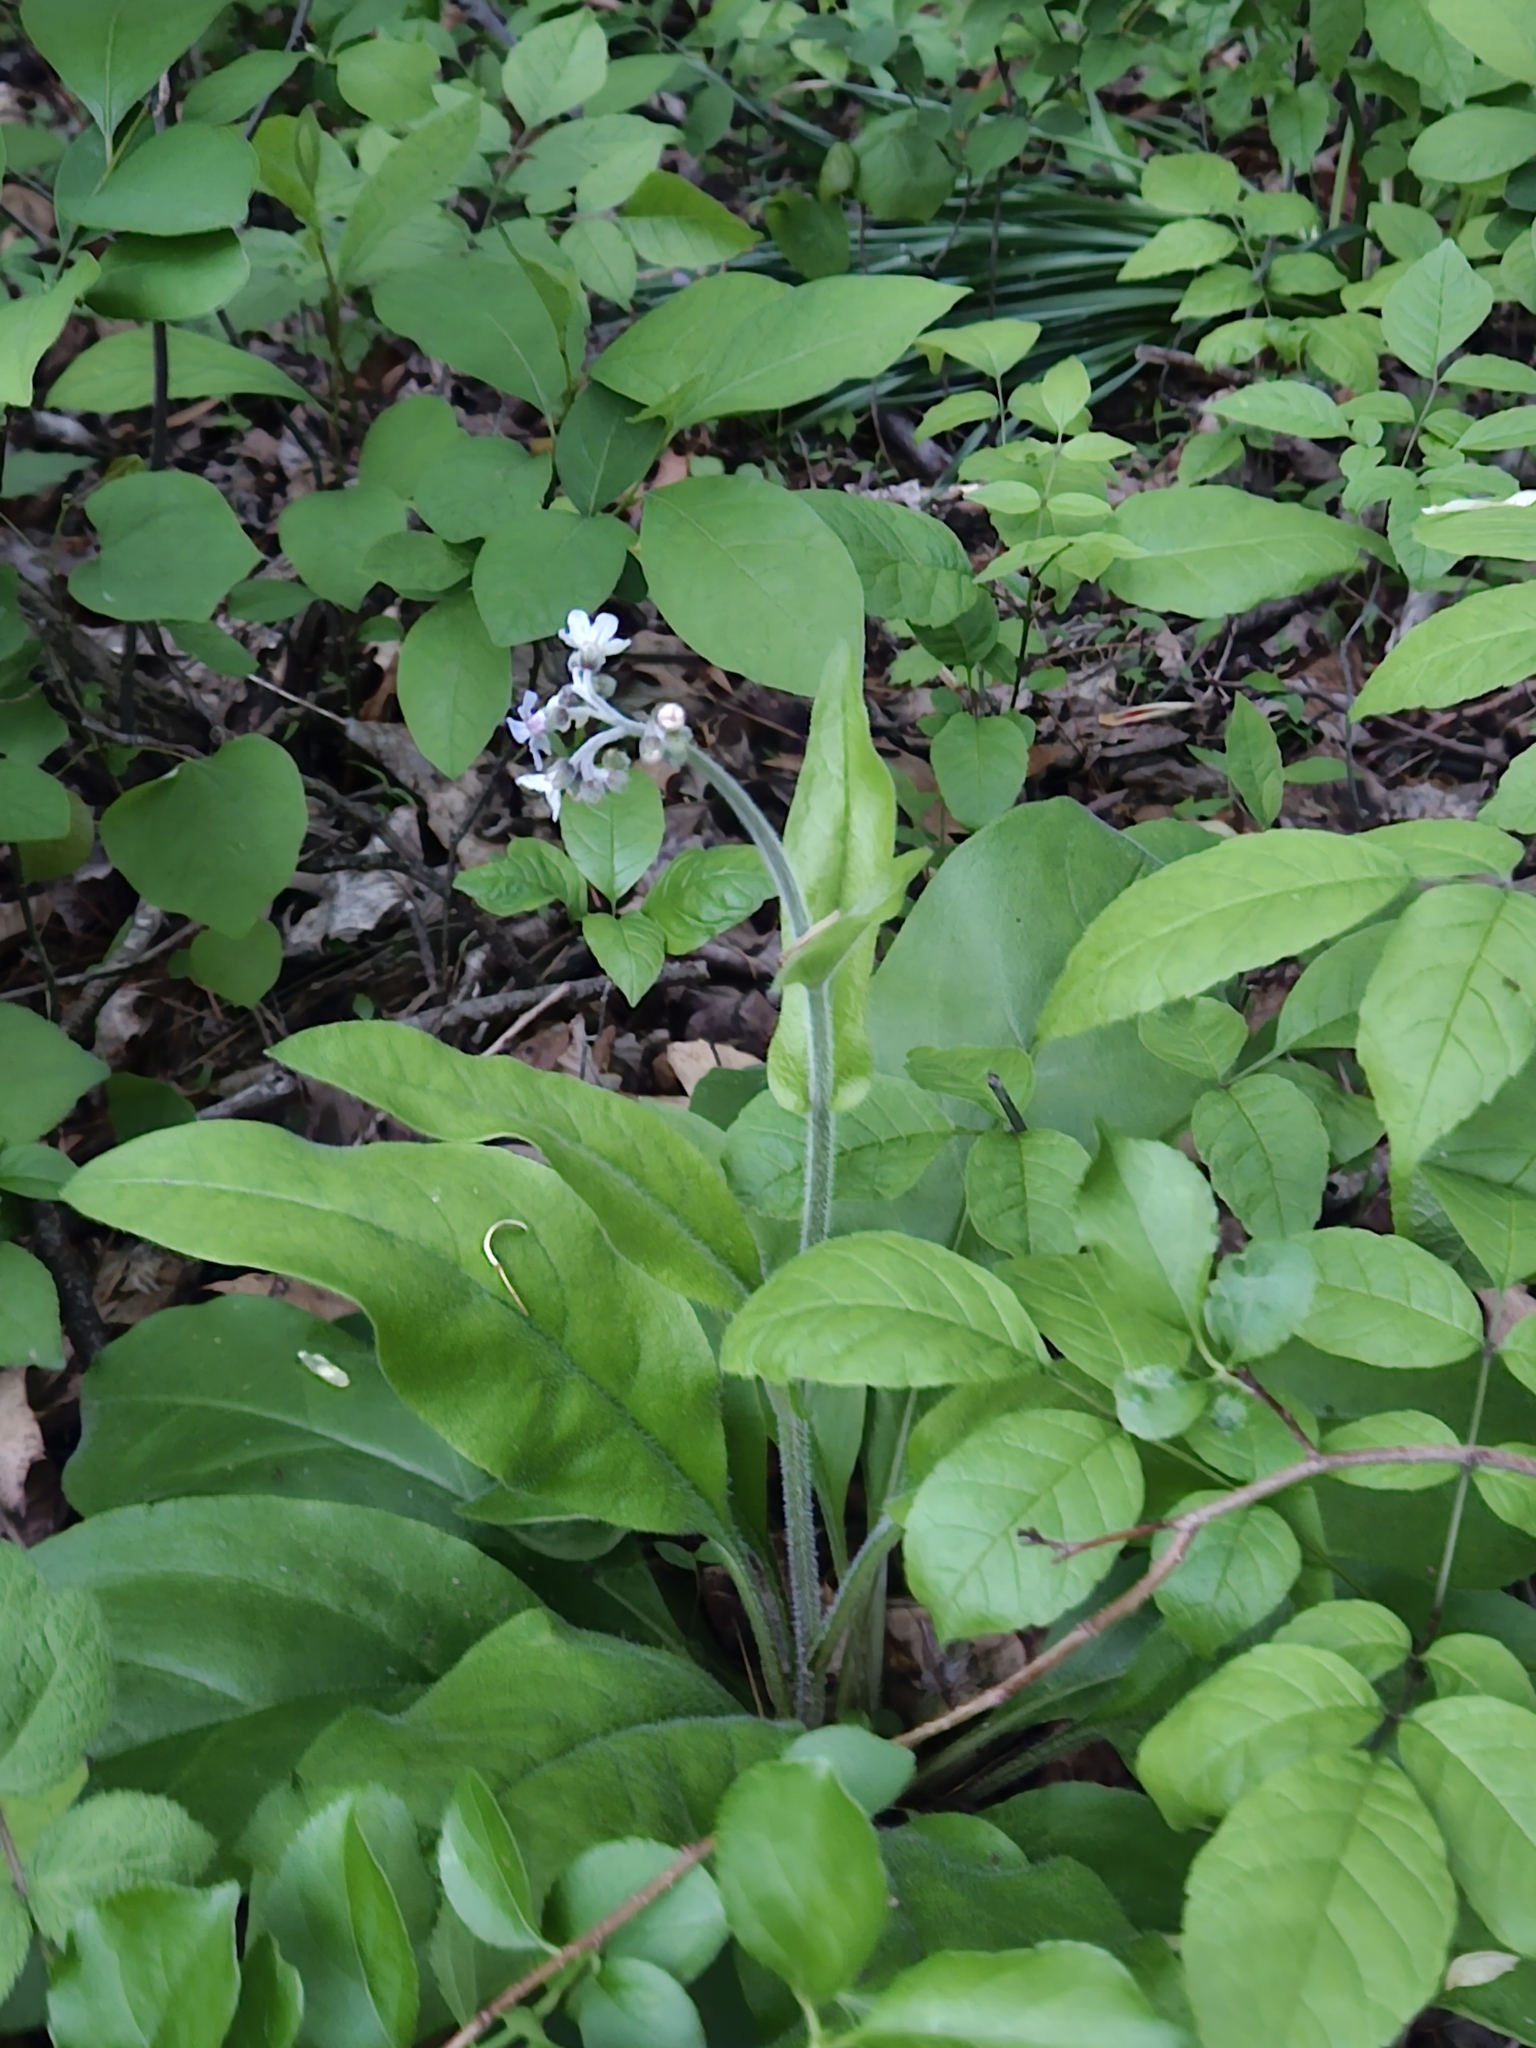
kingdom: Plantae
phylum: Tracheophyta
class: Magnoliopsida
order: Boraginales
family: Boraginaceae
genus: Andersonglossum
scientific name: Andersonglossum virginianum
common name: Wild comfrey
